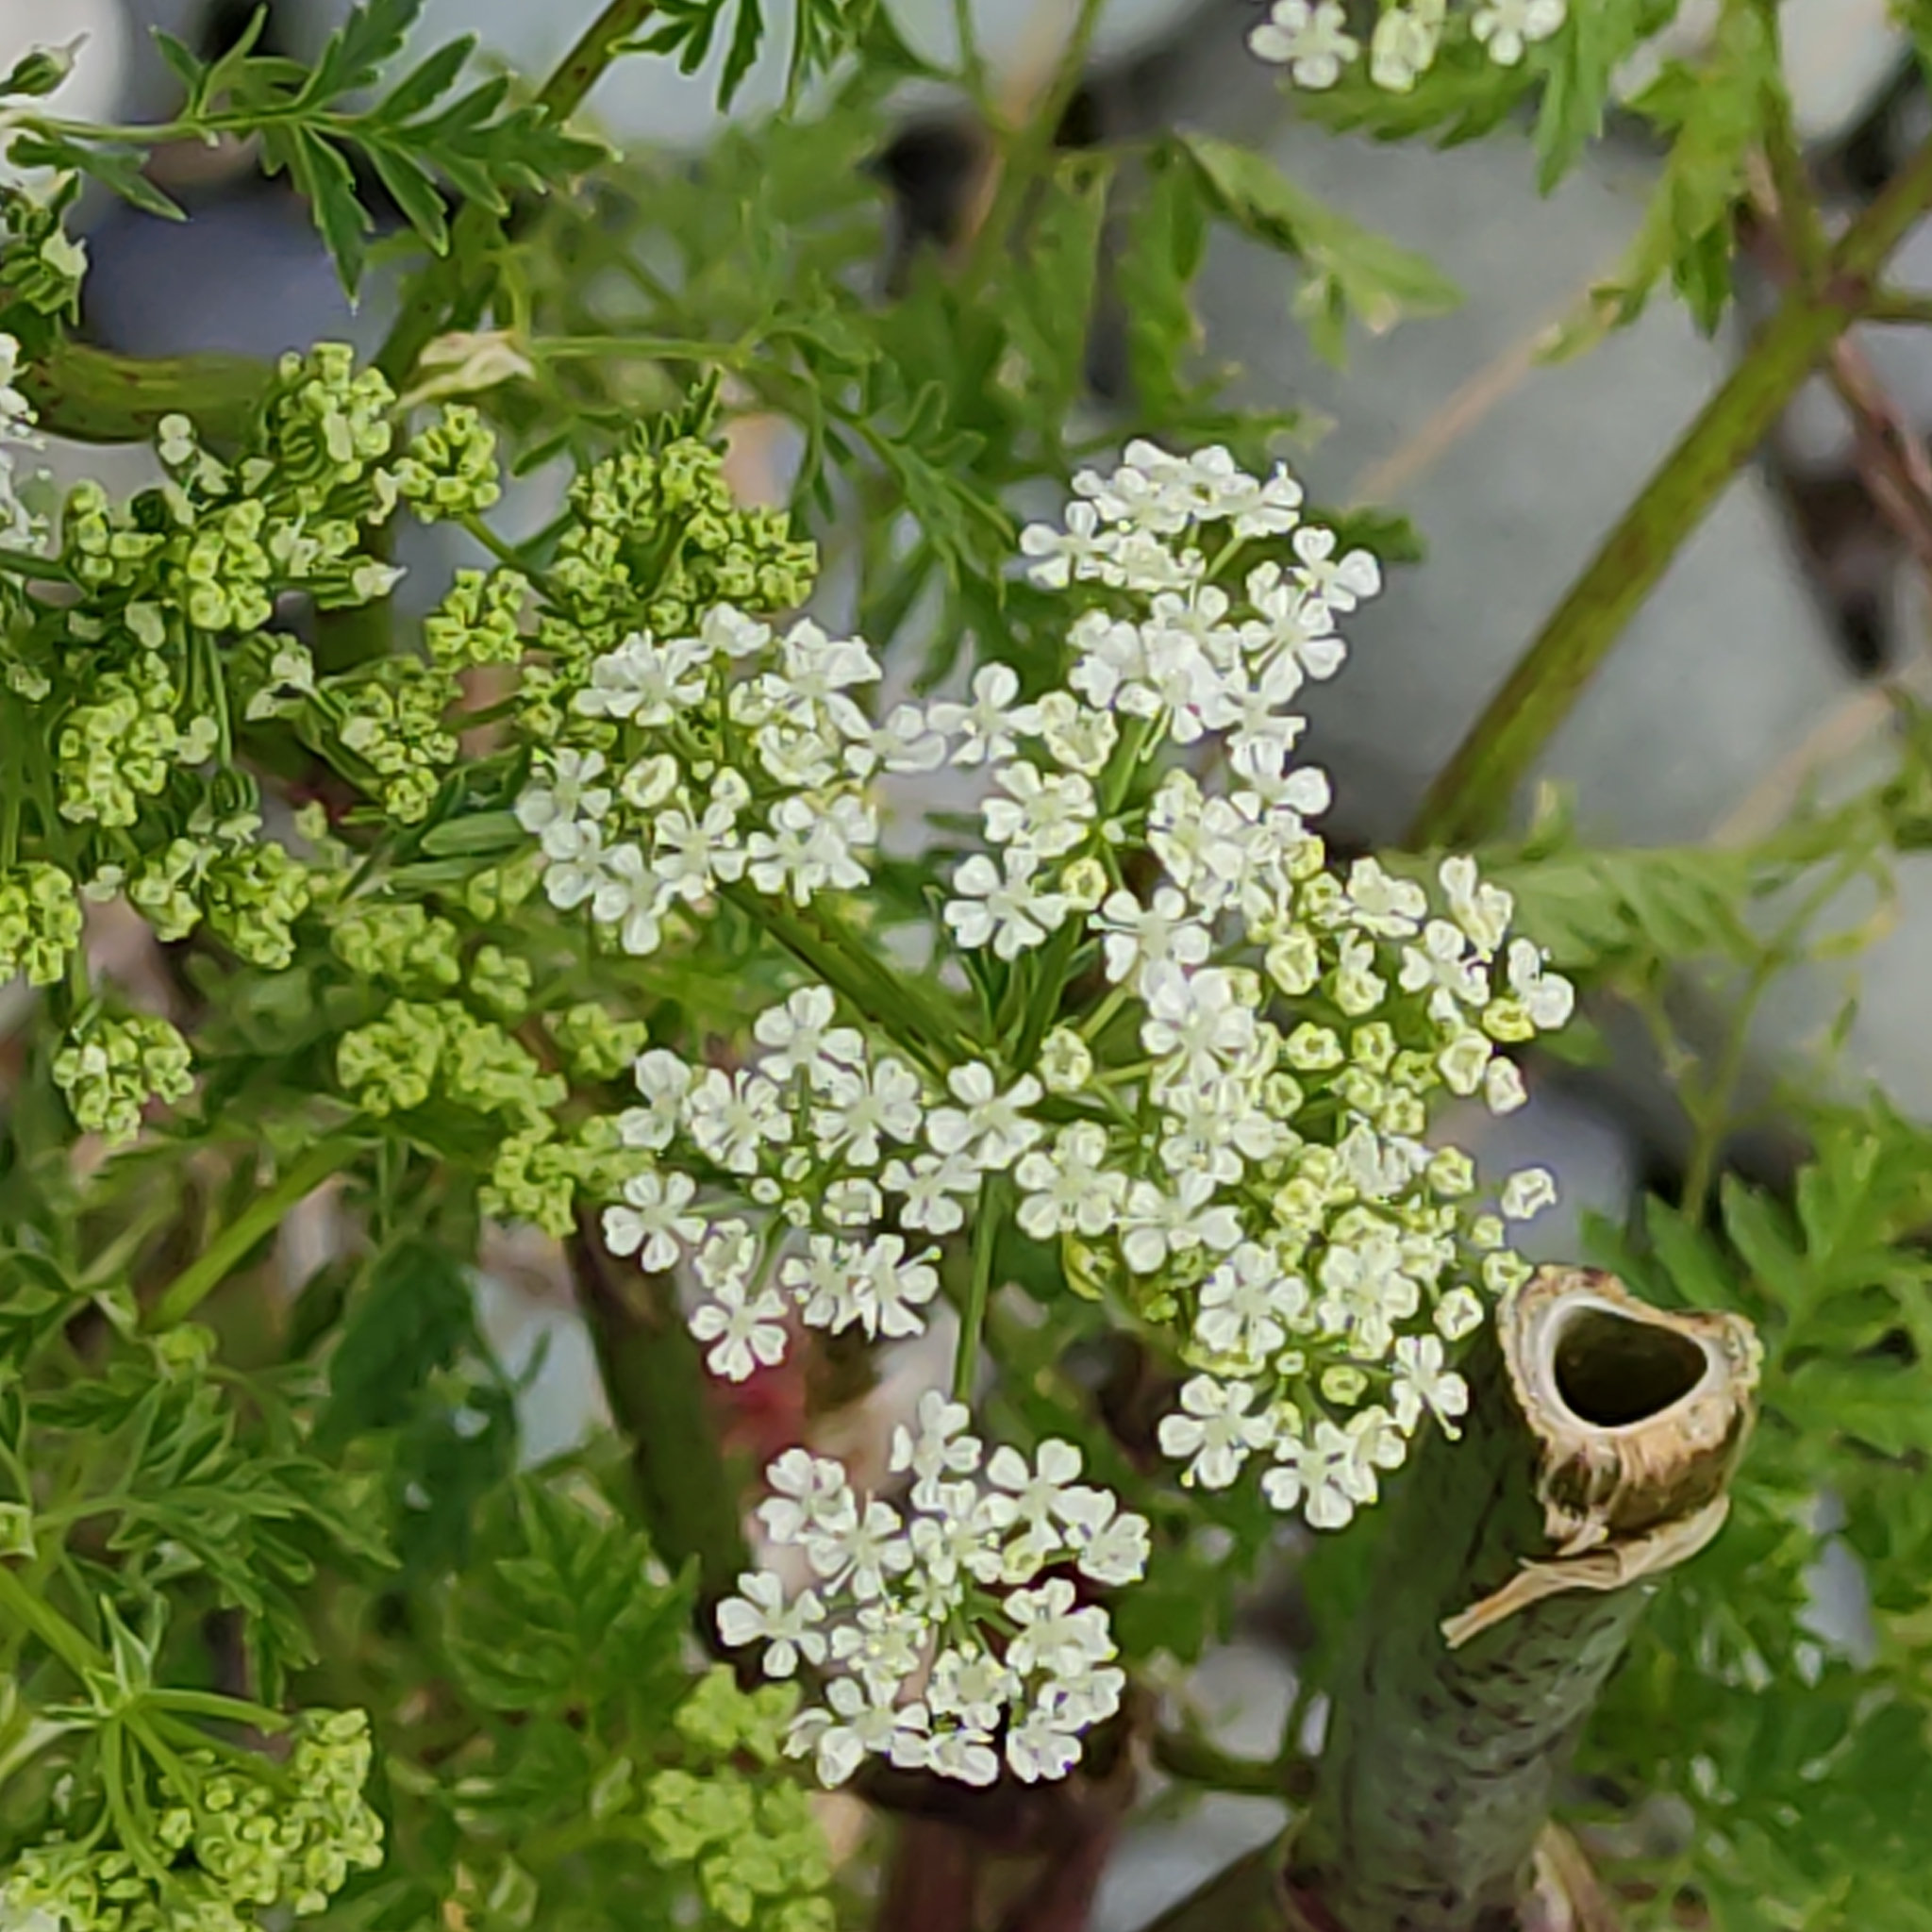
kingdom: Plantae
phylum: Tracheophyta
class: Magnoliopsida
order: Apiales
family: Apiaceae
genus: Conium
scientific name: Conium maculatum
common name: Hemlock
